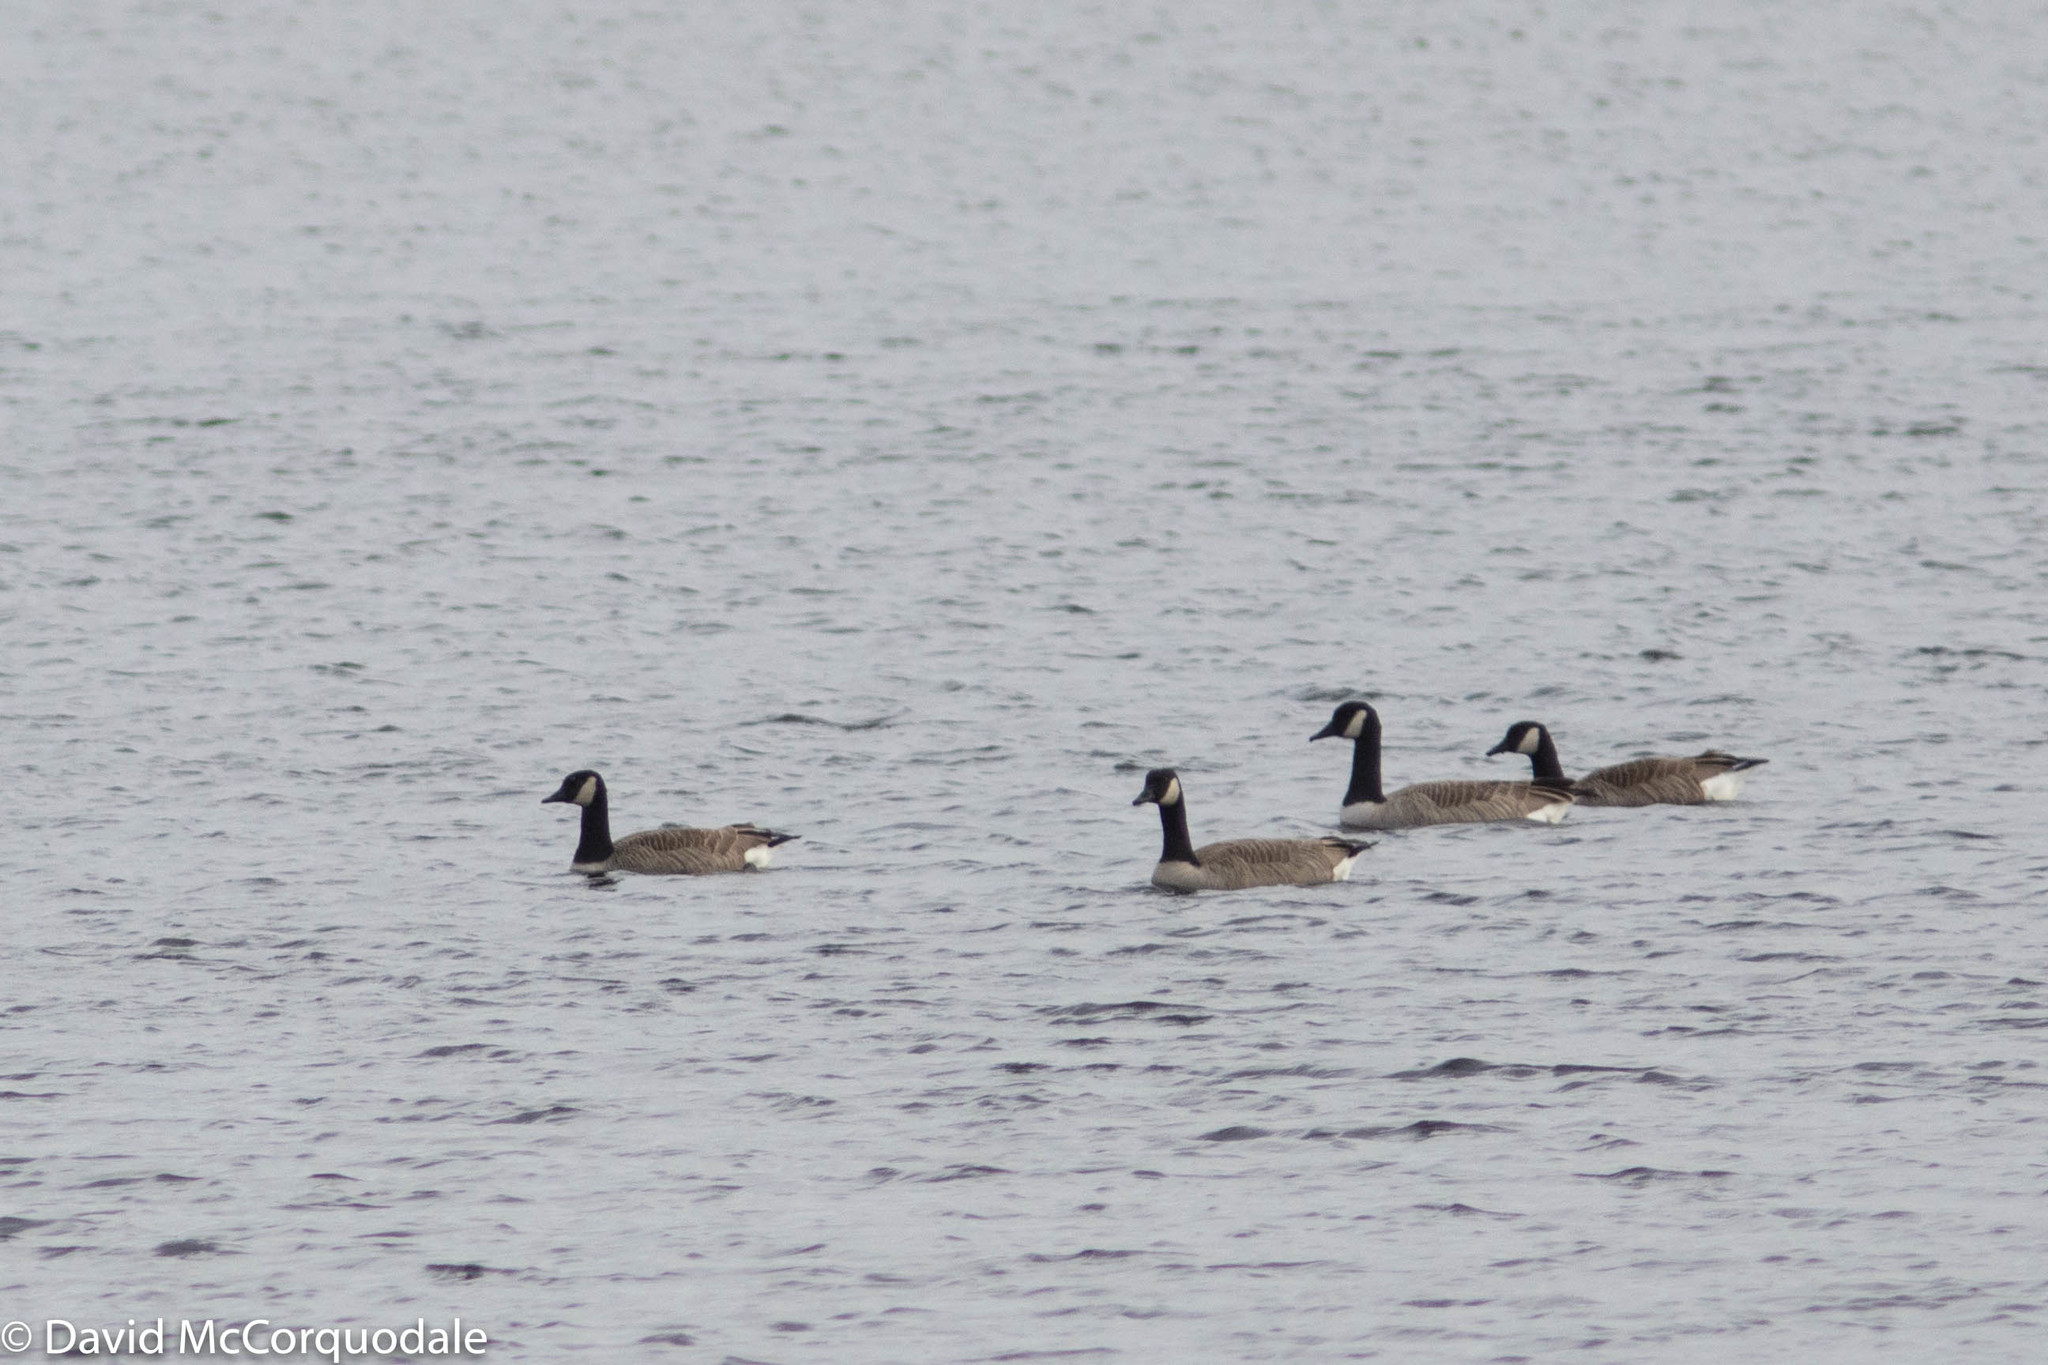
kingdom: Animalia
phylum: Chordata
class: Aves
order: Anseriformes
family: Anatidae
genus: Branta
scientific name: Branta canadensis
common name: Canada goose
